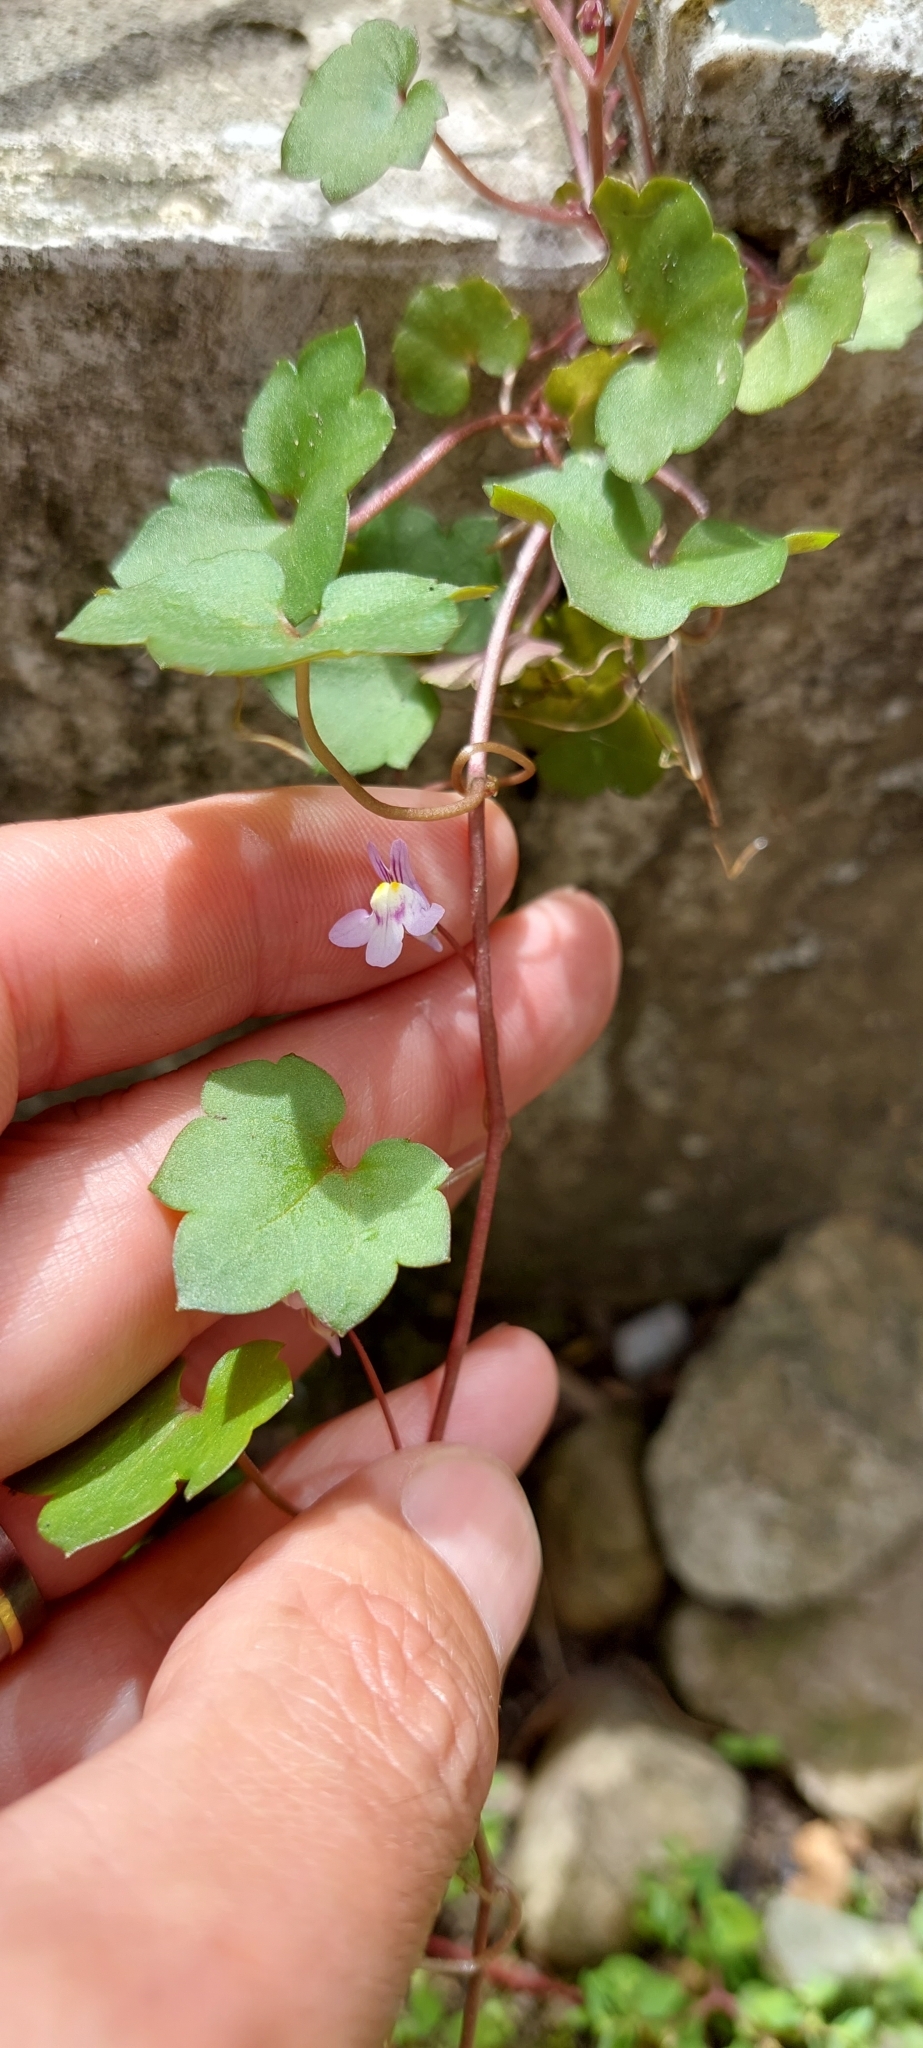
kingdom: Plantae
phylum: Tracheophyta
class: Magnoliopsida
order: Lamiales
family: Plantaginaceae
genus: Cymbalaria
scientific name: Cymbalaria muralis
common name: Ivy-leaved toadflax
